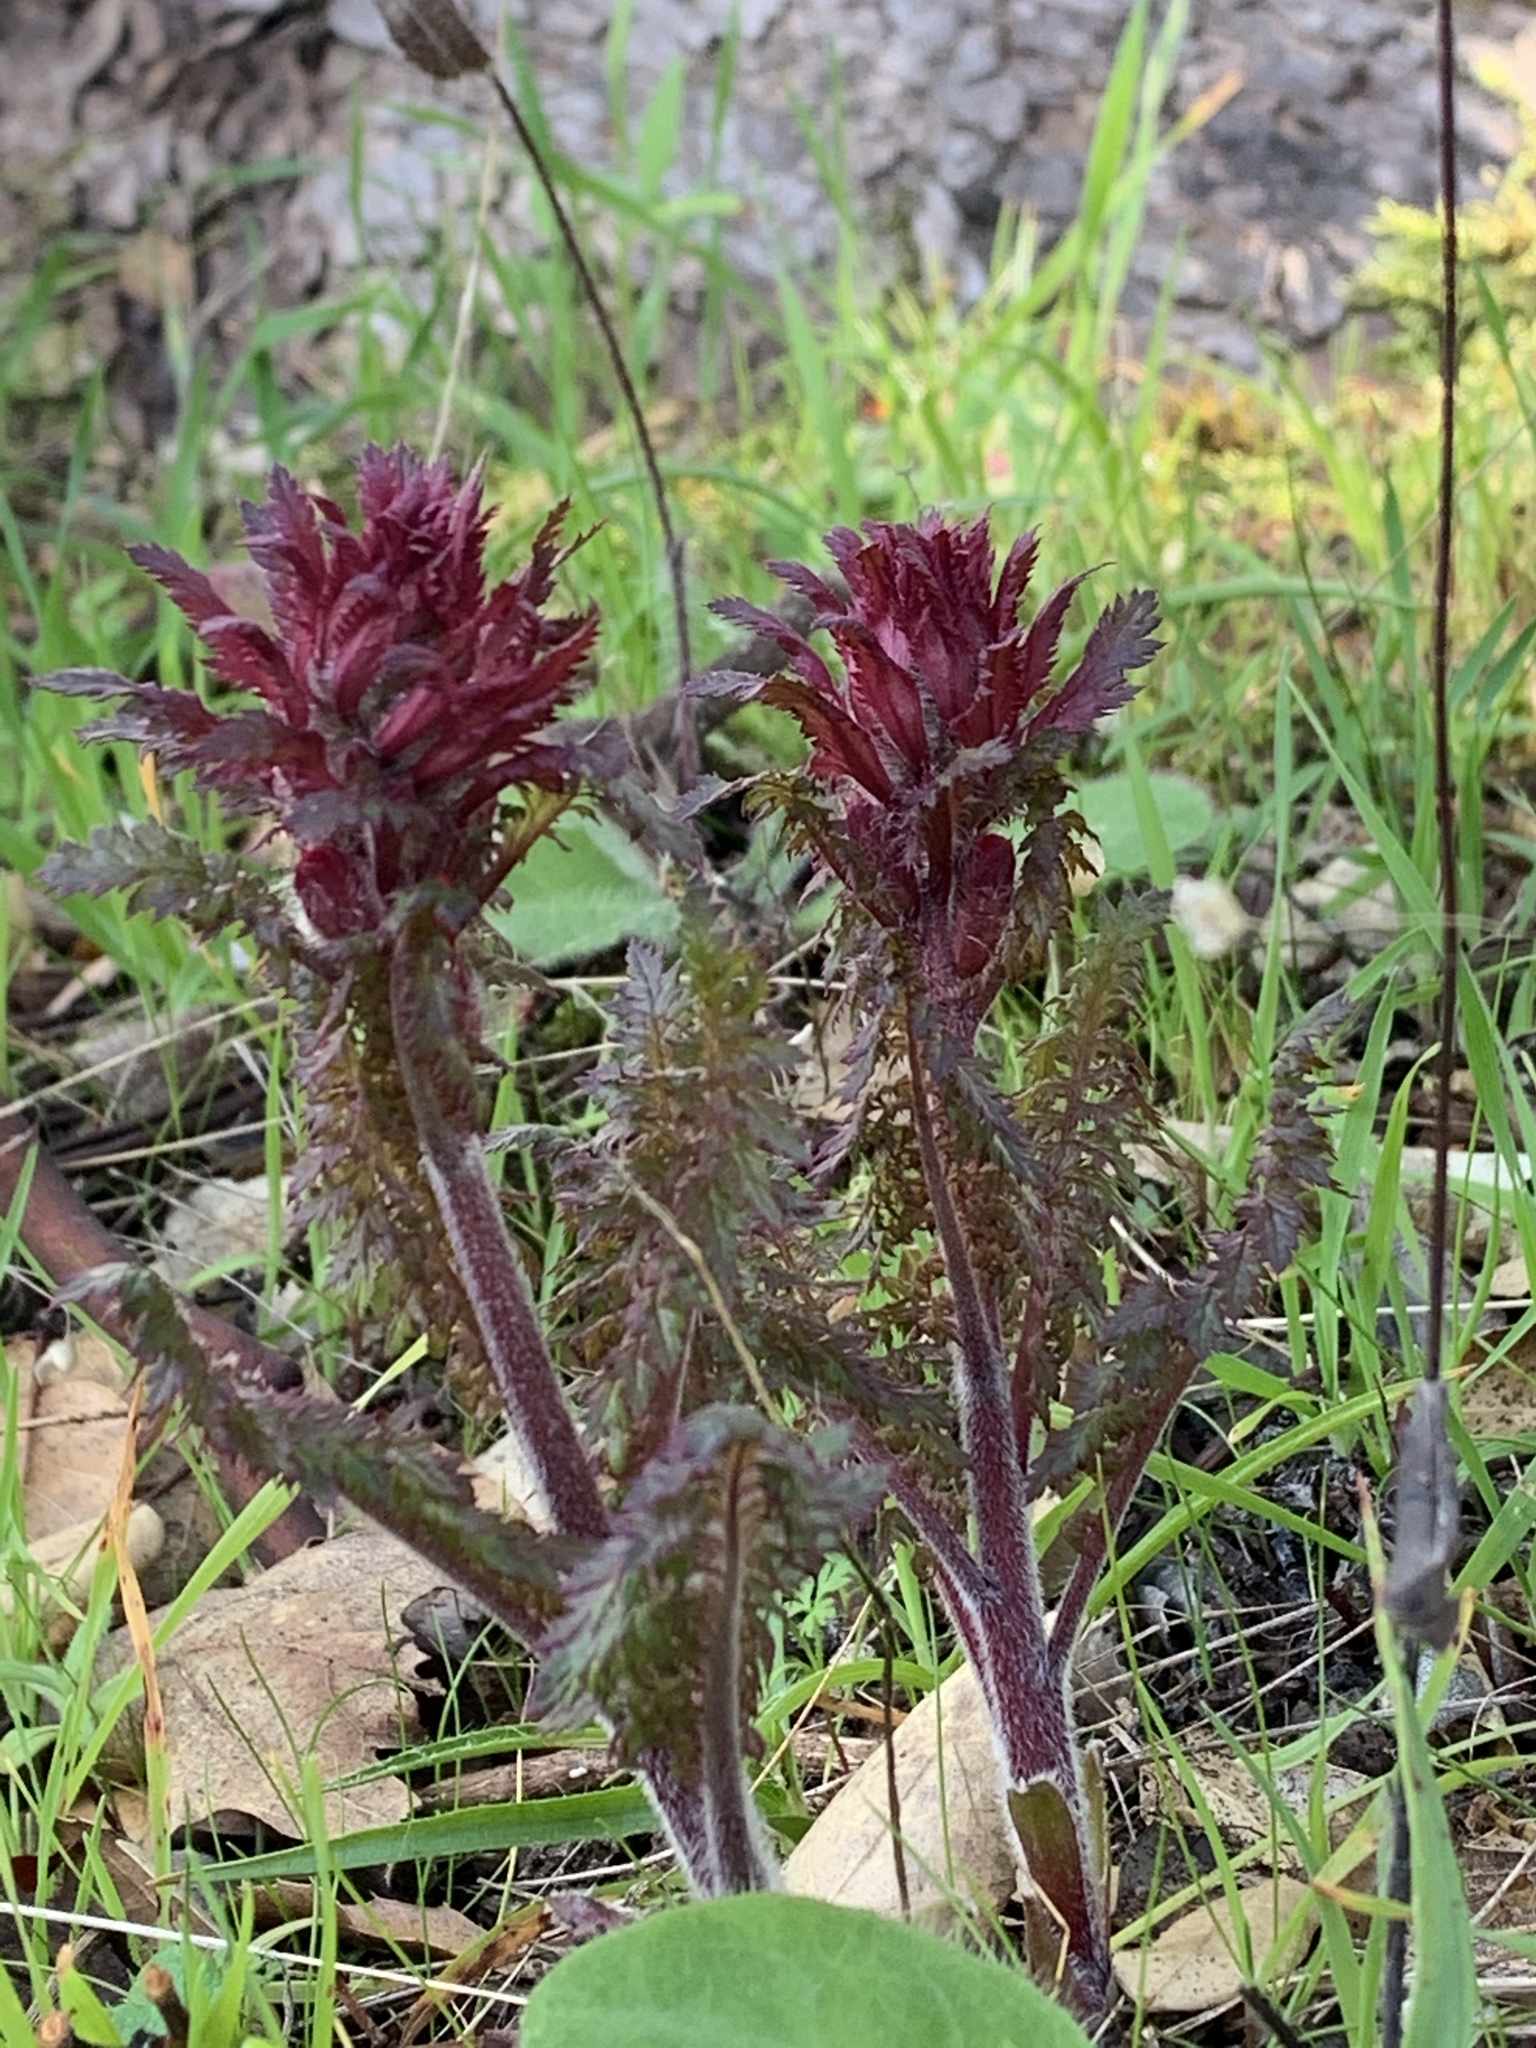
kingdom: Plantae
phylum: Tracheophyta
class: Magnoliopsida
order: Lamiales
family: Orobanchaceae
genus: Pedicularis
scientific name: Pedicularis densiflora
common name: Indian warrior
